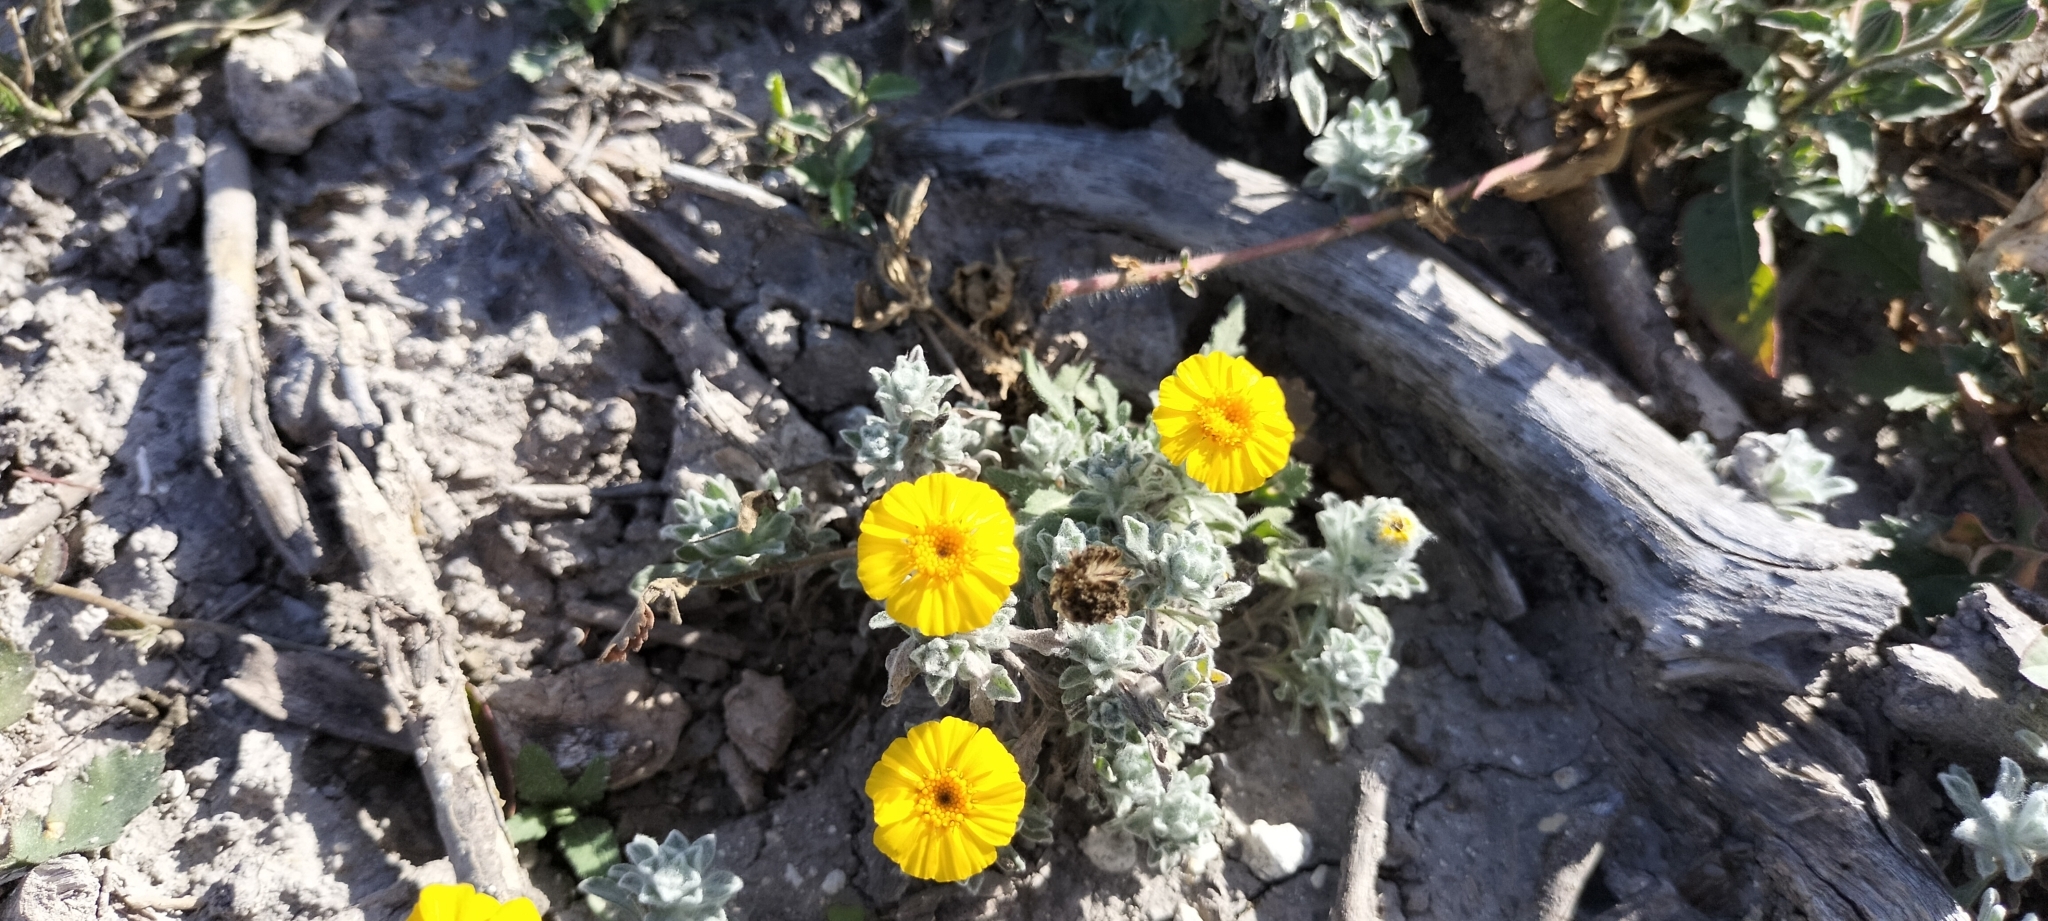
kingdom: Plantae
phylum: Tracheophyta
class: Magnoliopsida
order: Asterales
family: Asteraceae
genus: Thymophylla
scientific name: Thymophylla micropoides
